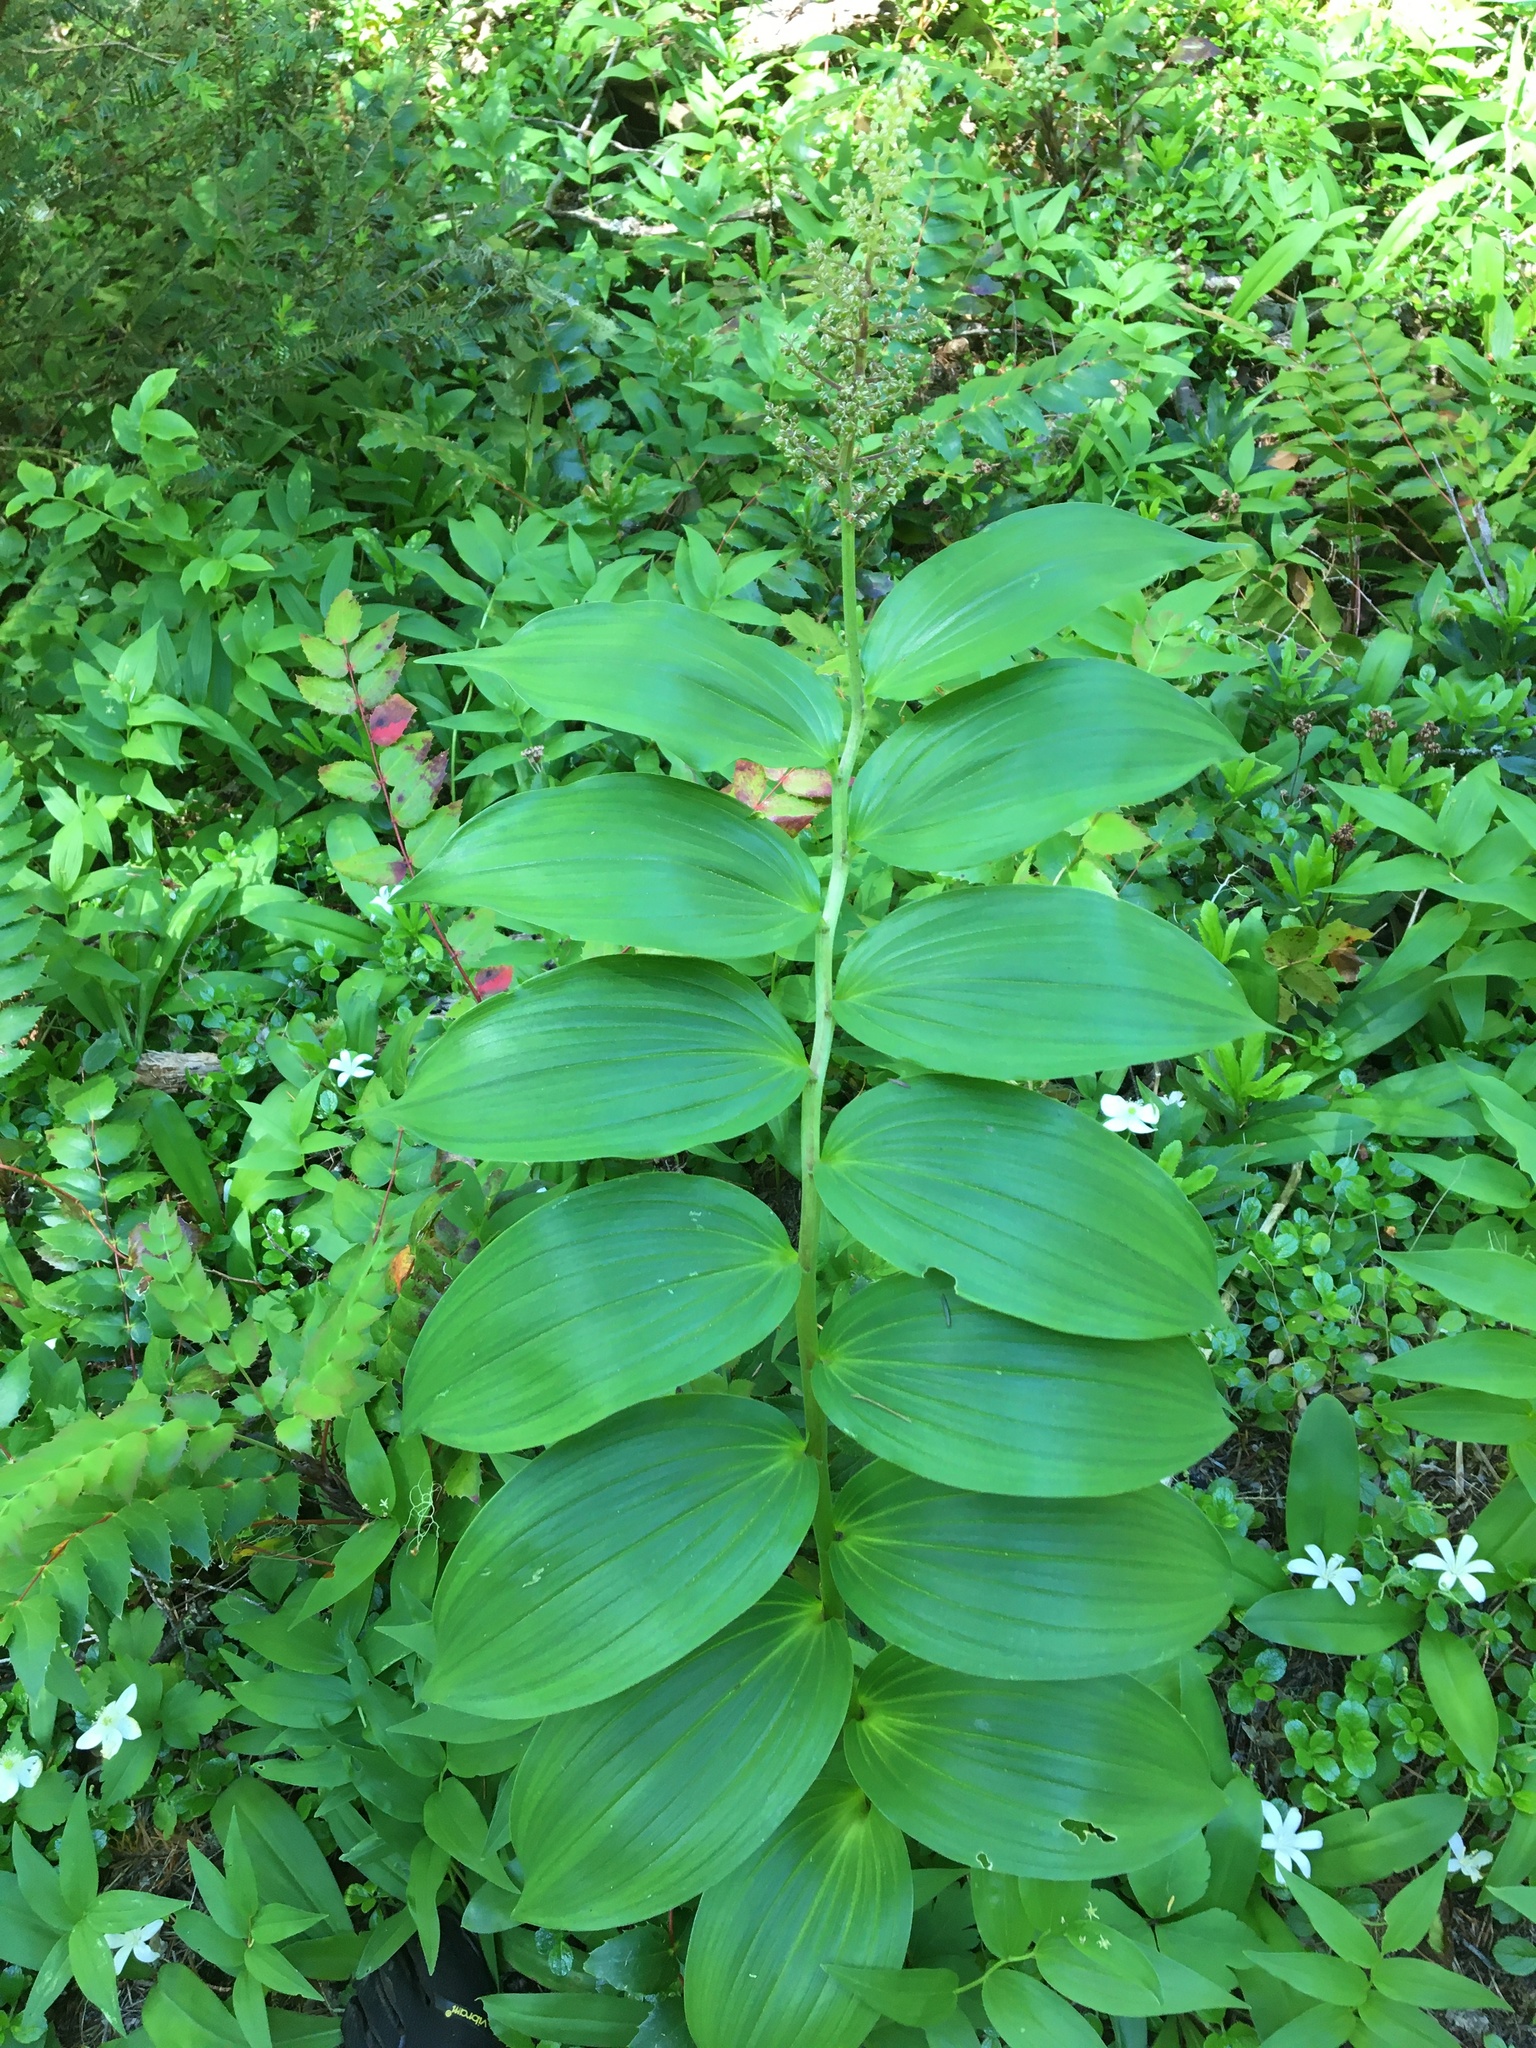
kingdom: Plantae
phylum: Tracheophyta
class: Liliopsida
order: Asparagales
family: Asparagaceae
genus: Maianthemum
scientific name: Maianthemum racemosum
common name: False spikenard
